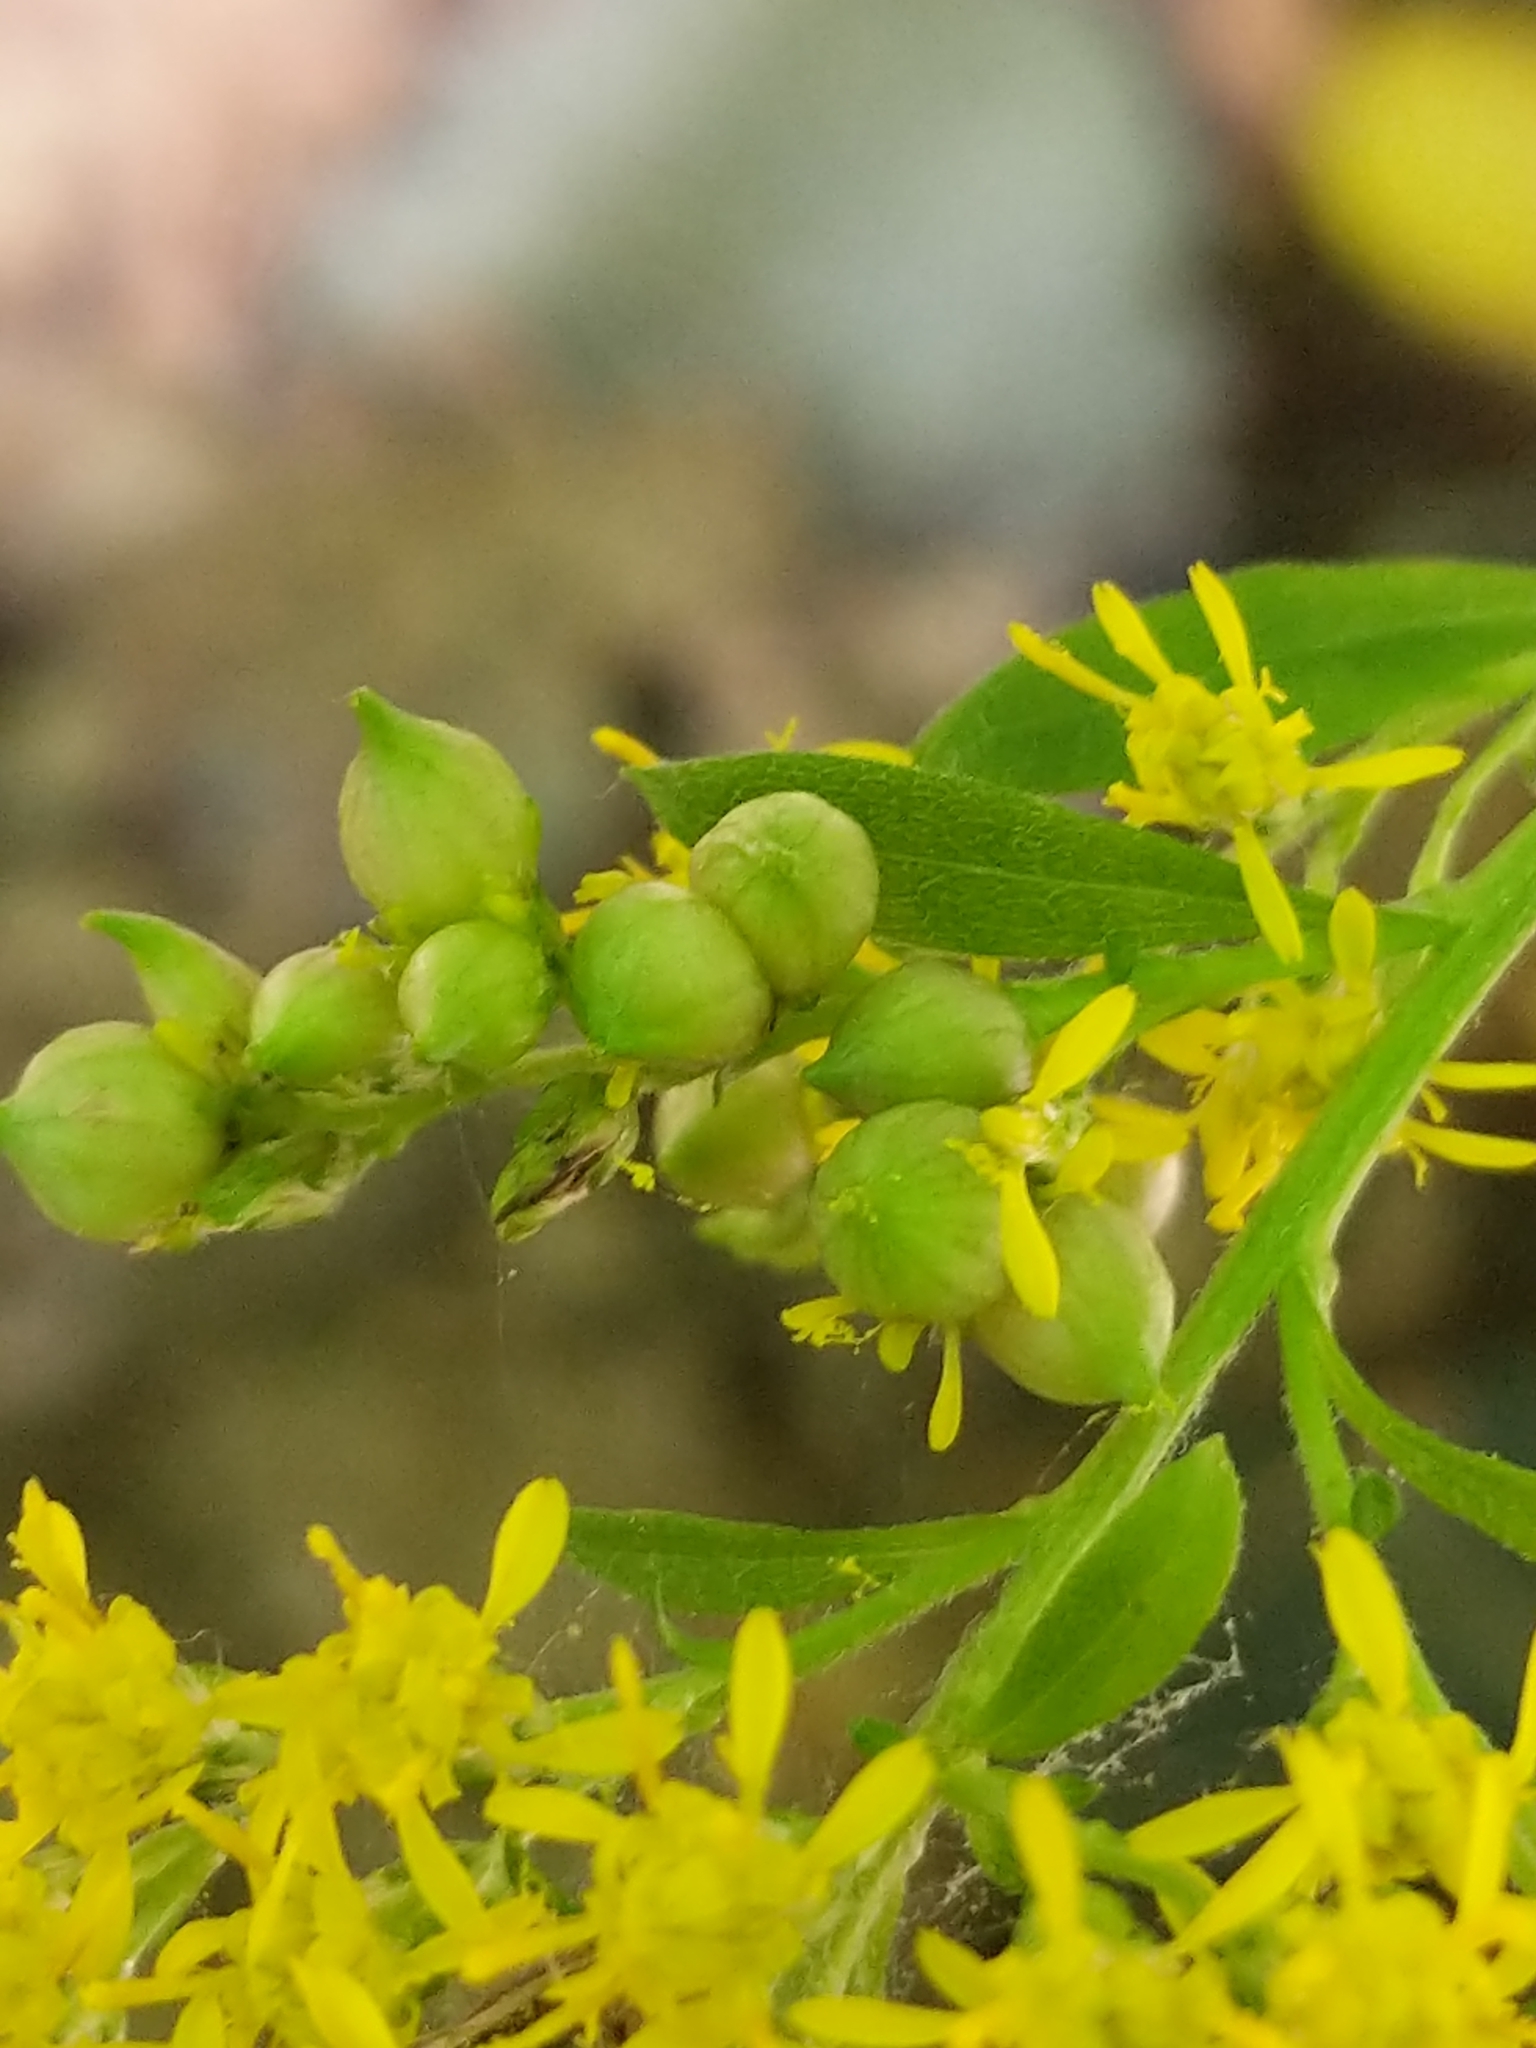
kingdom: Animalia
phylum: Arthropoda
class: Insecta
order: Diptera
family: Cecidomyiidae
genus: Schizomyia
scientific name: Schizomyia racemicola
